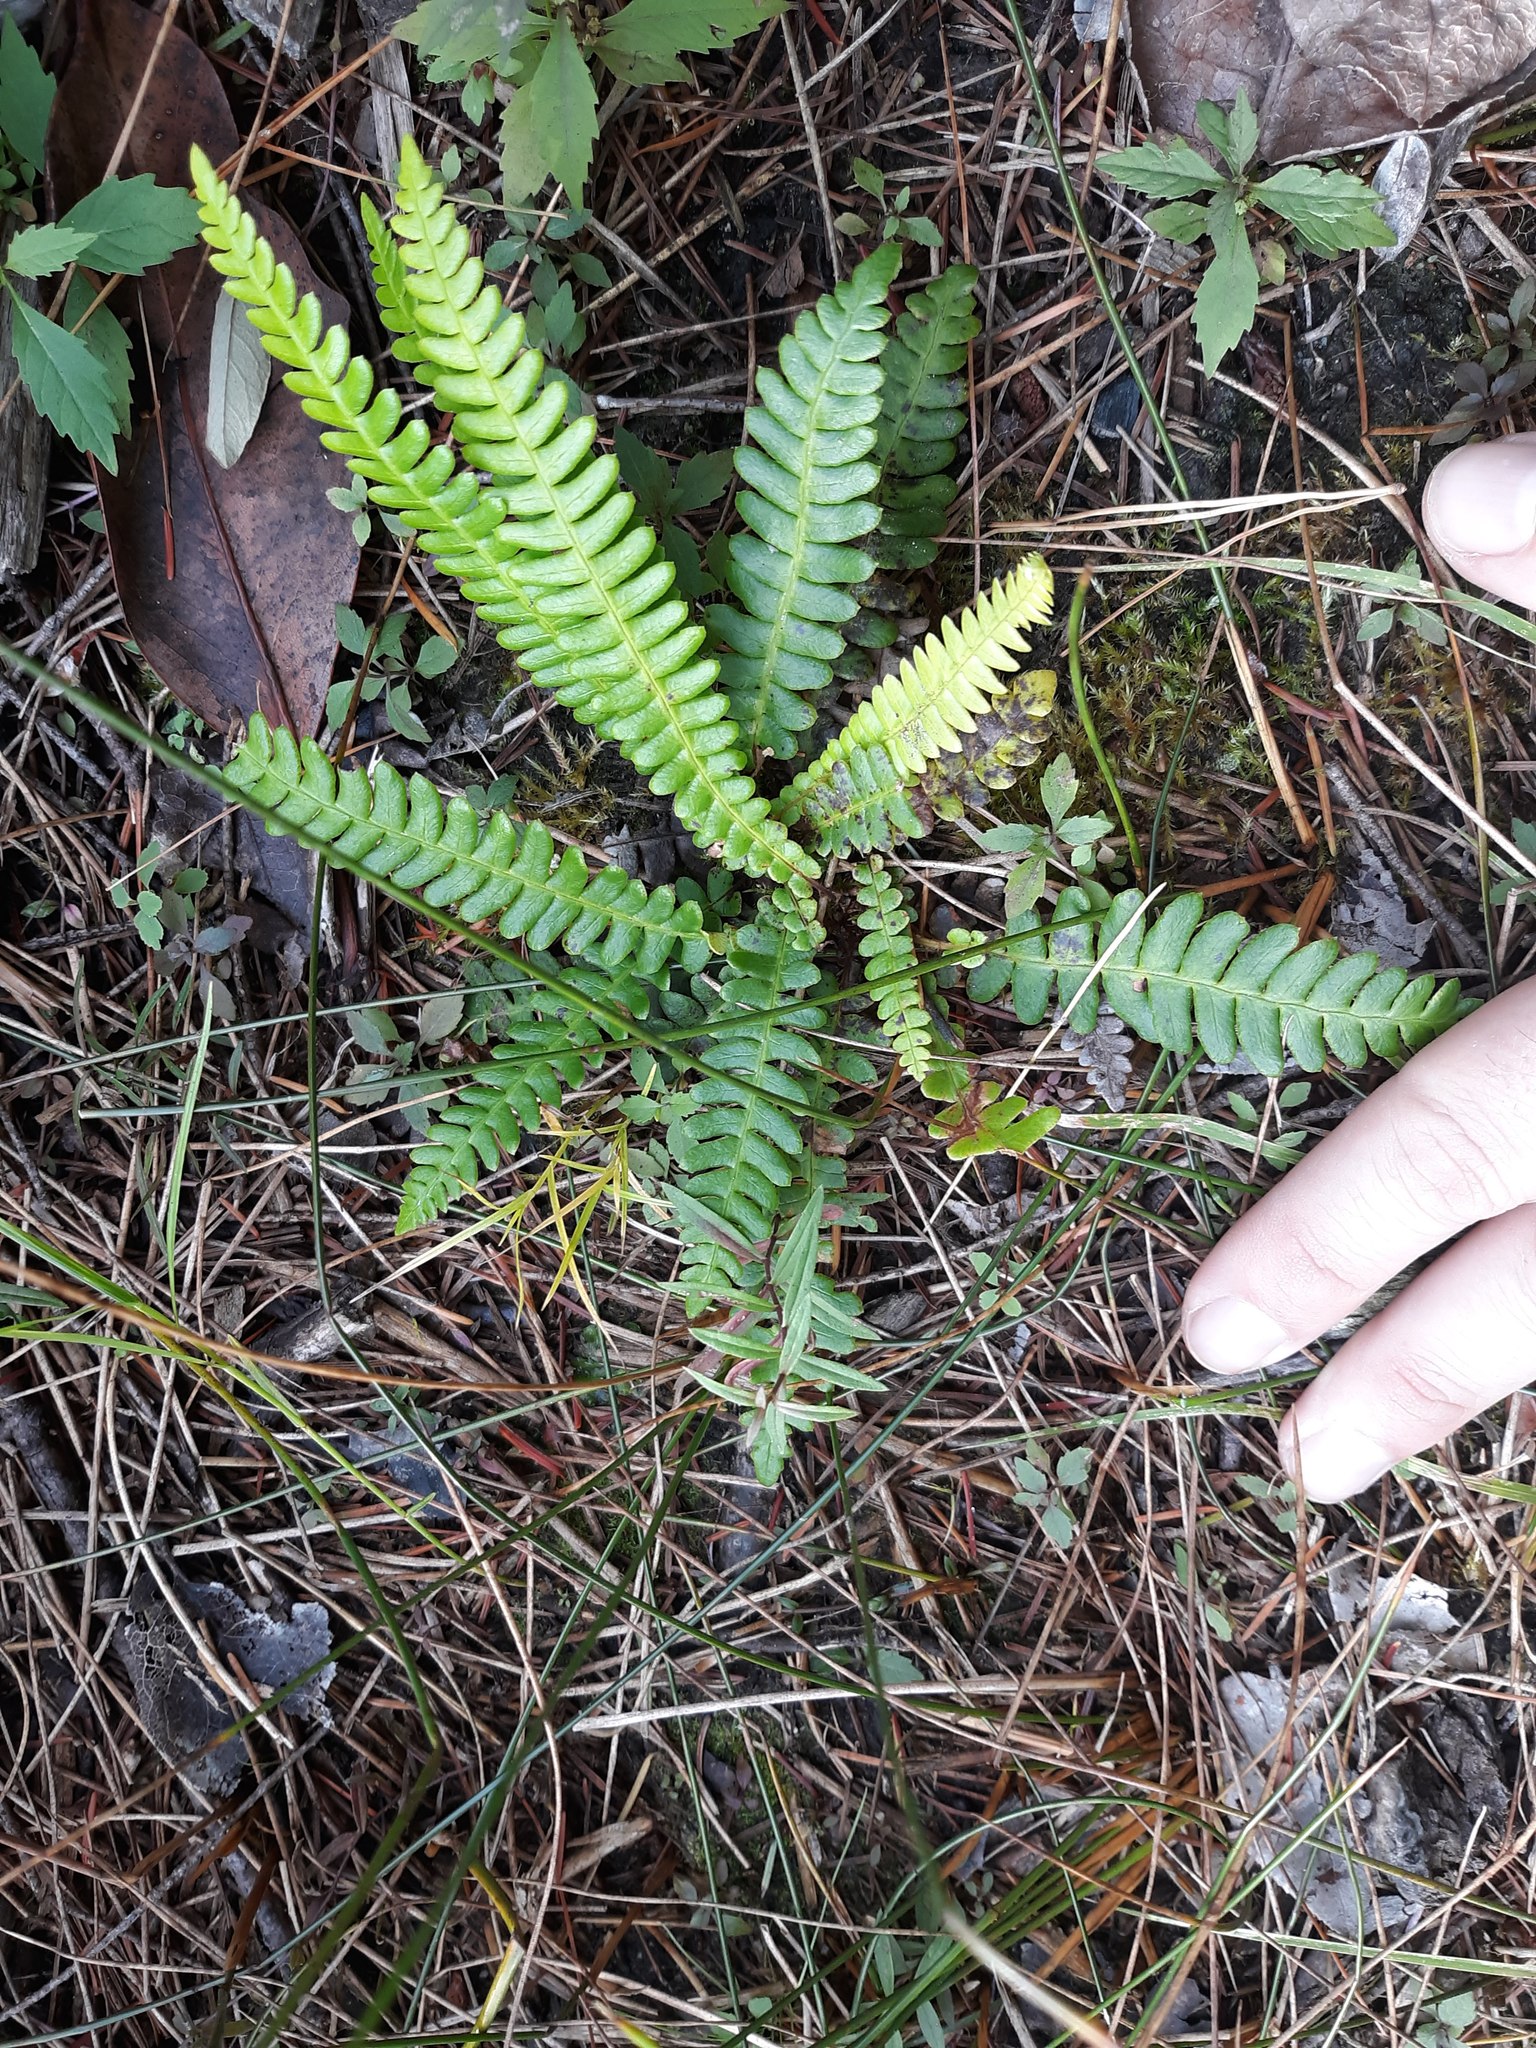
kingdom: Plantae
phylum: Tracheophyta
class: Polypodiopsida
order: Polypodiales
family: Blechnaceae
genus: Struthiopteris
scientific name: Struthiopteris spicant
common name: Deer fern
